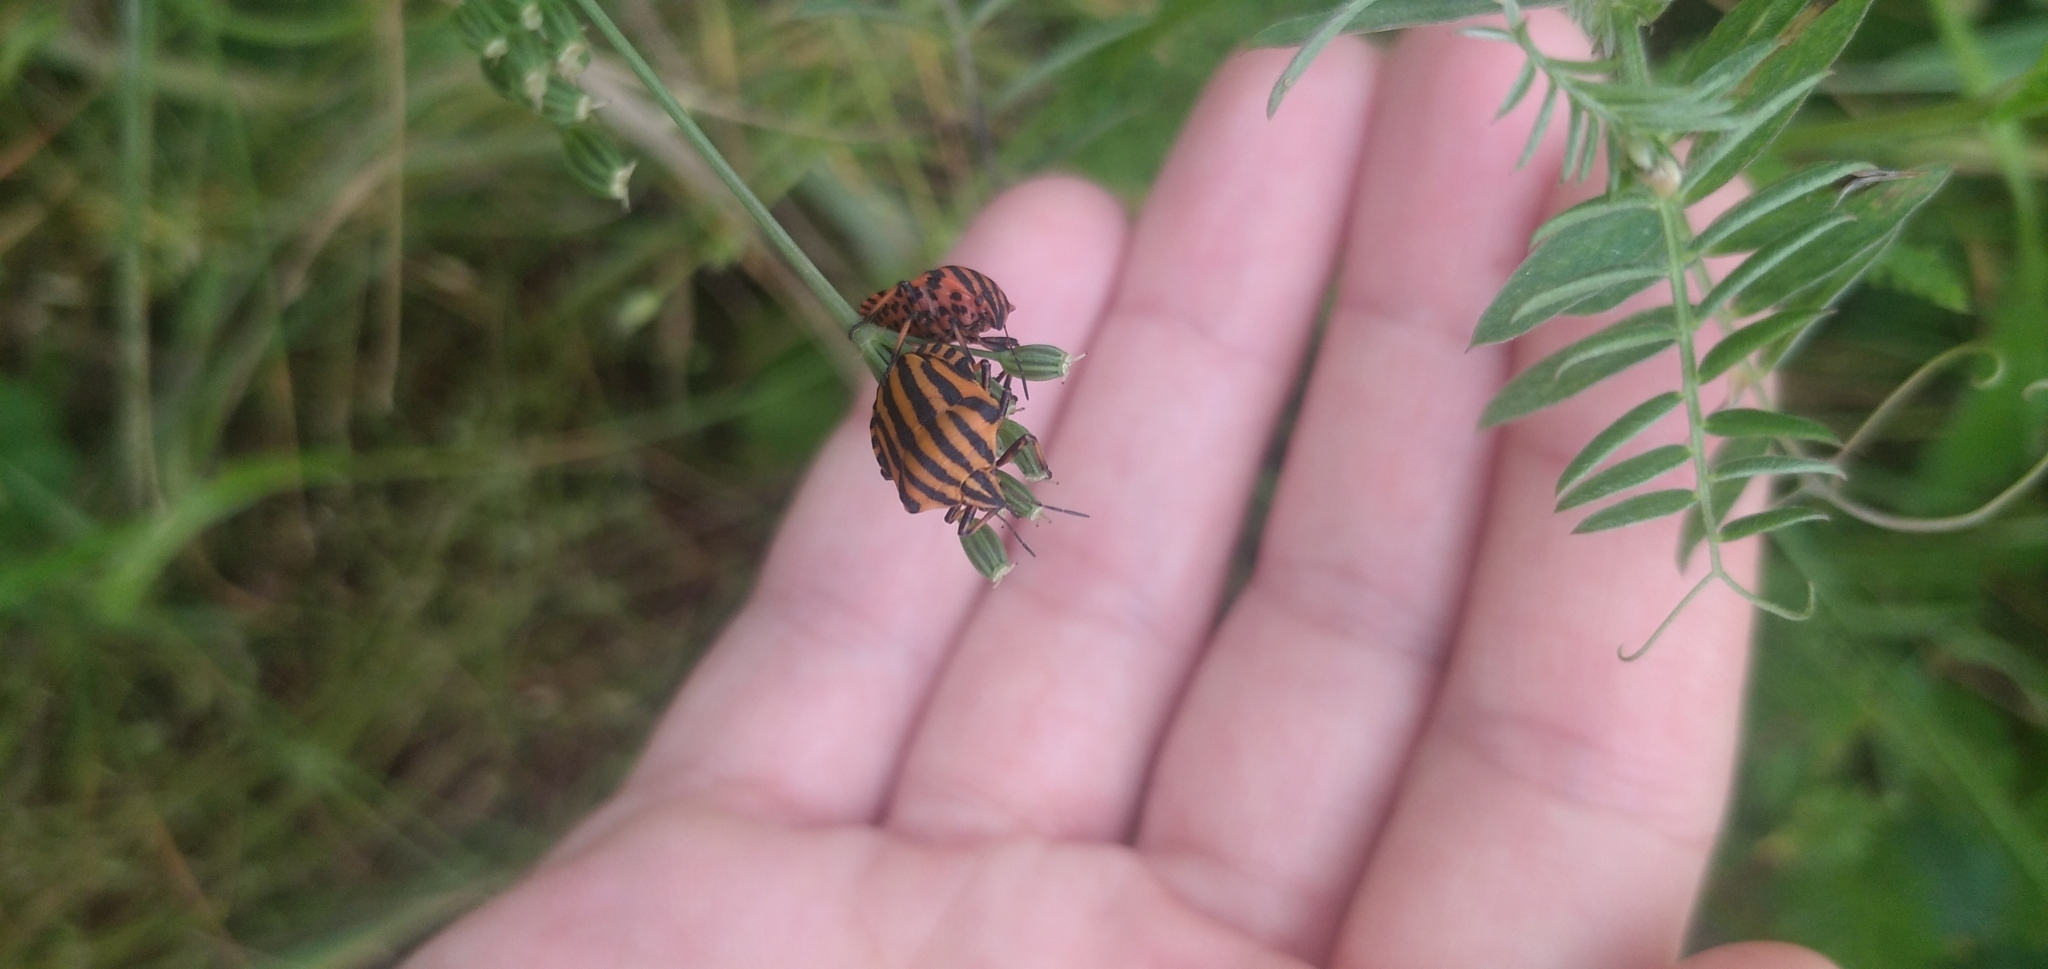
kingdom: Animalia
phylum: Arthropoda
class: Insecta
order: Hemiptera
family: Pentatomidae
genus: Graphosoma
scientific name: Graphosoma italicum
